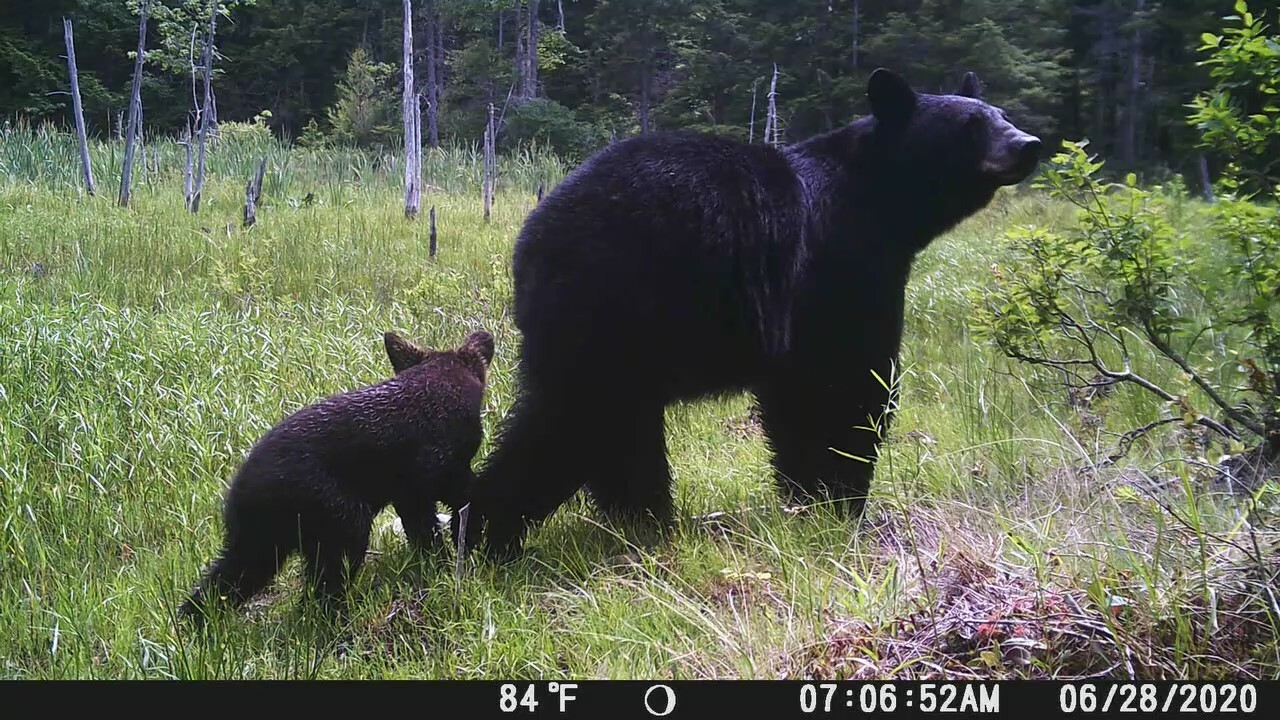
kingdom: Animalia
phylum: Chordata
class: Mammalia
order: Carnivora
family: Ursidae
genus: Ursus
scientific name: Ursus americanus
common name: American black bear
